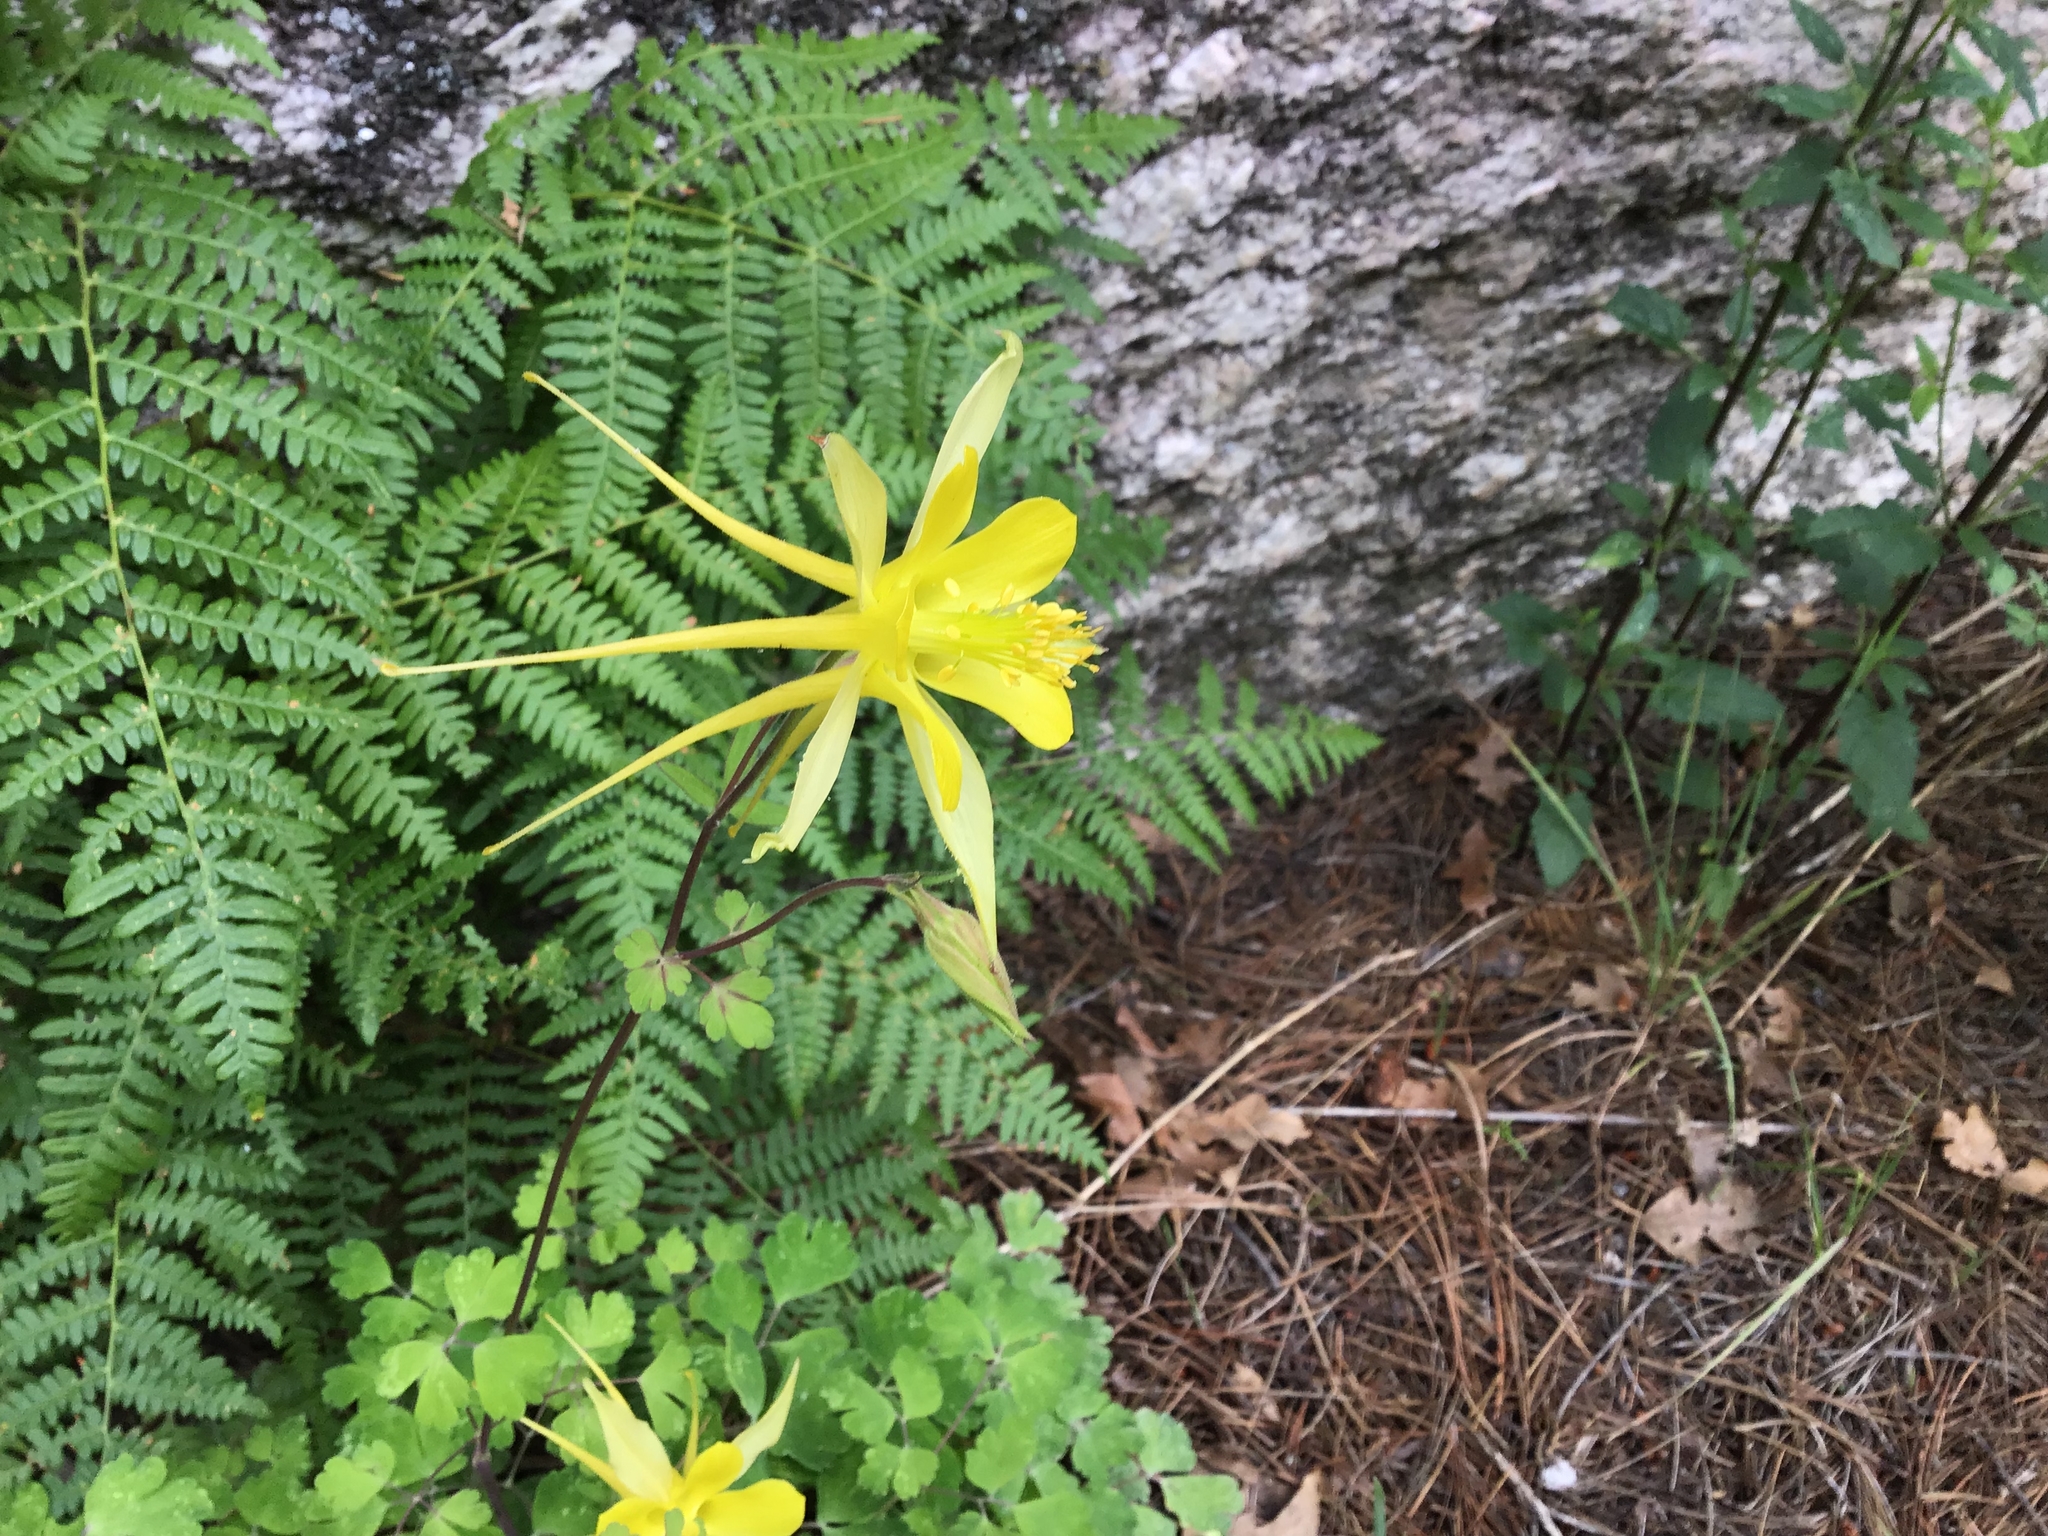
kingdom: Plantae
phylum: Tracheophyta
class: Magnoliopsida
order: Ranunculales
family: Ranunculaceae
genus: Aquilegia
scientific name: Aquilegia chrysantha
